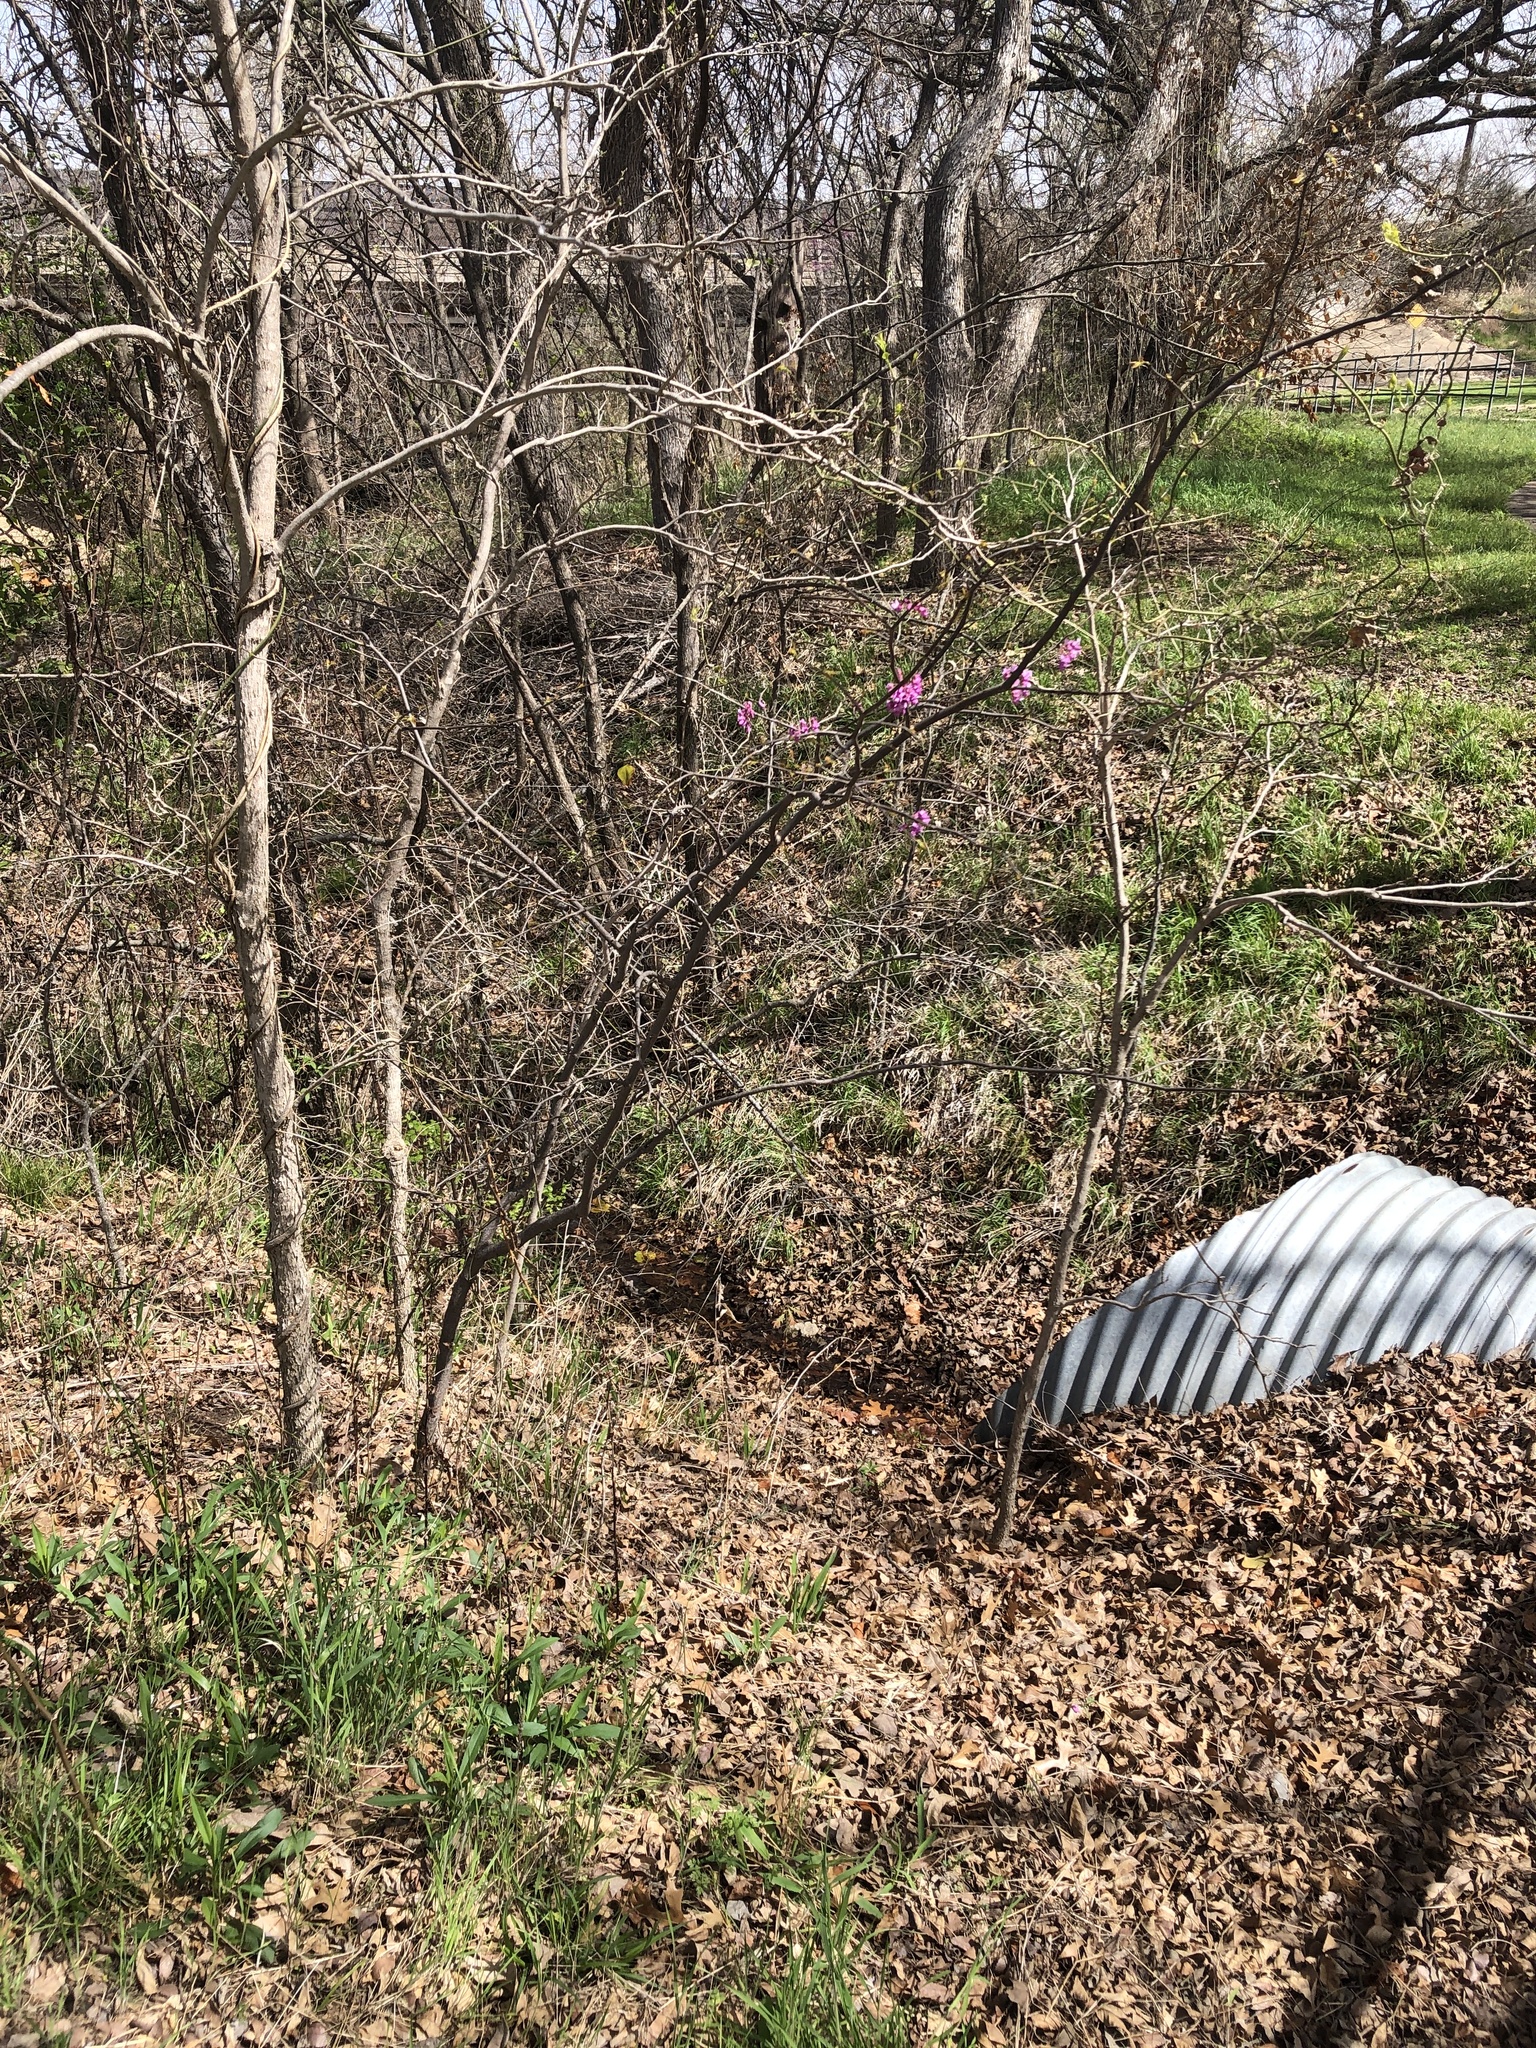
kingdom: Plantae
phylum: Tracheophyta
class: Magnoliopsida
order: Fabales
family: Fabaceae
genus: Cercis
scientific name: Cercis canadensis
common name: Eastern redbud
